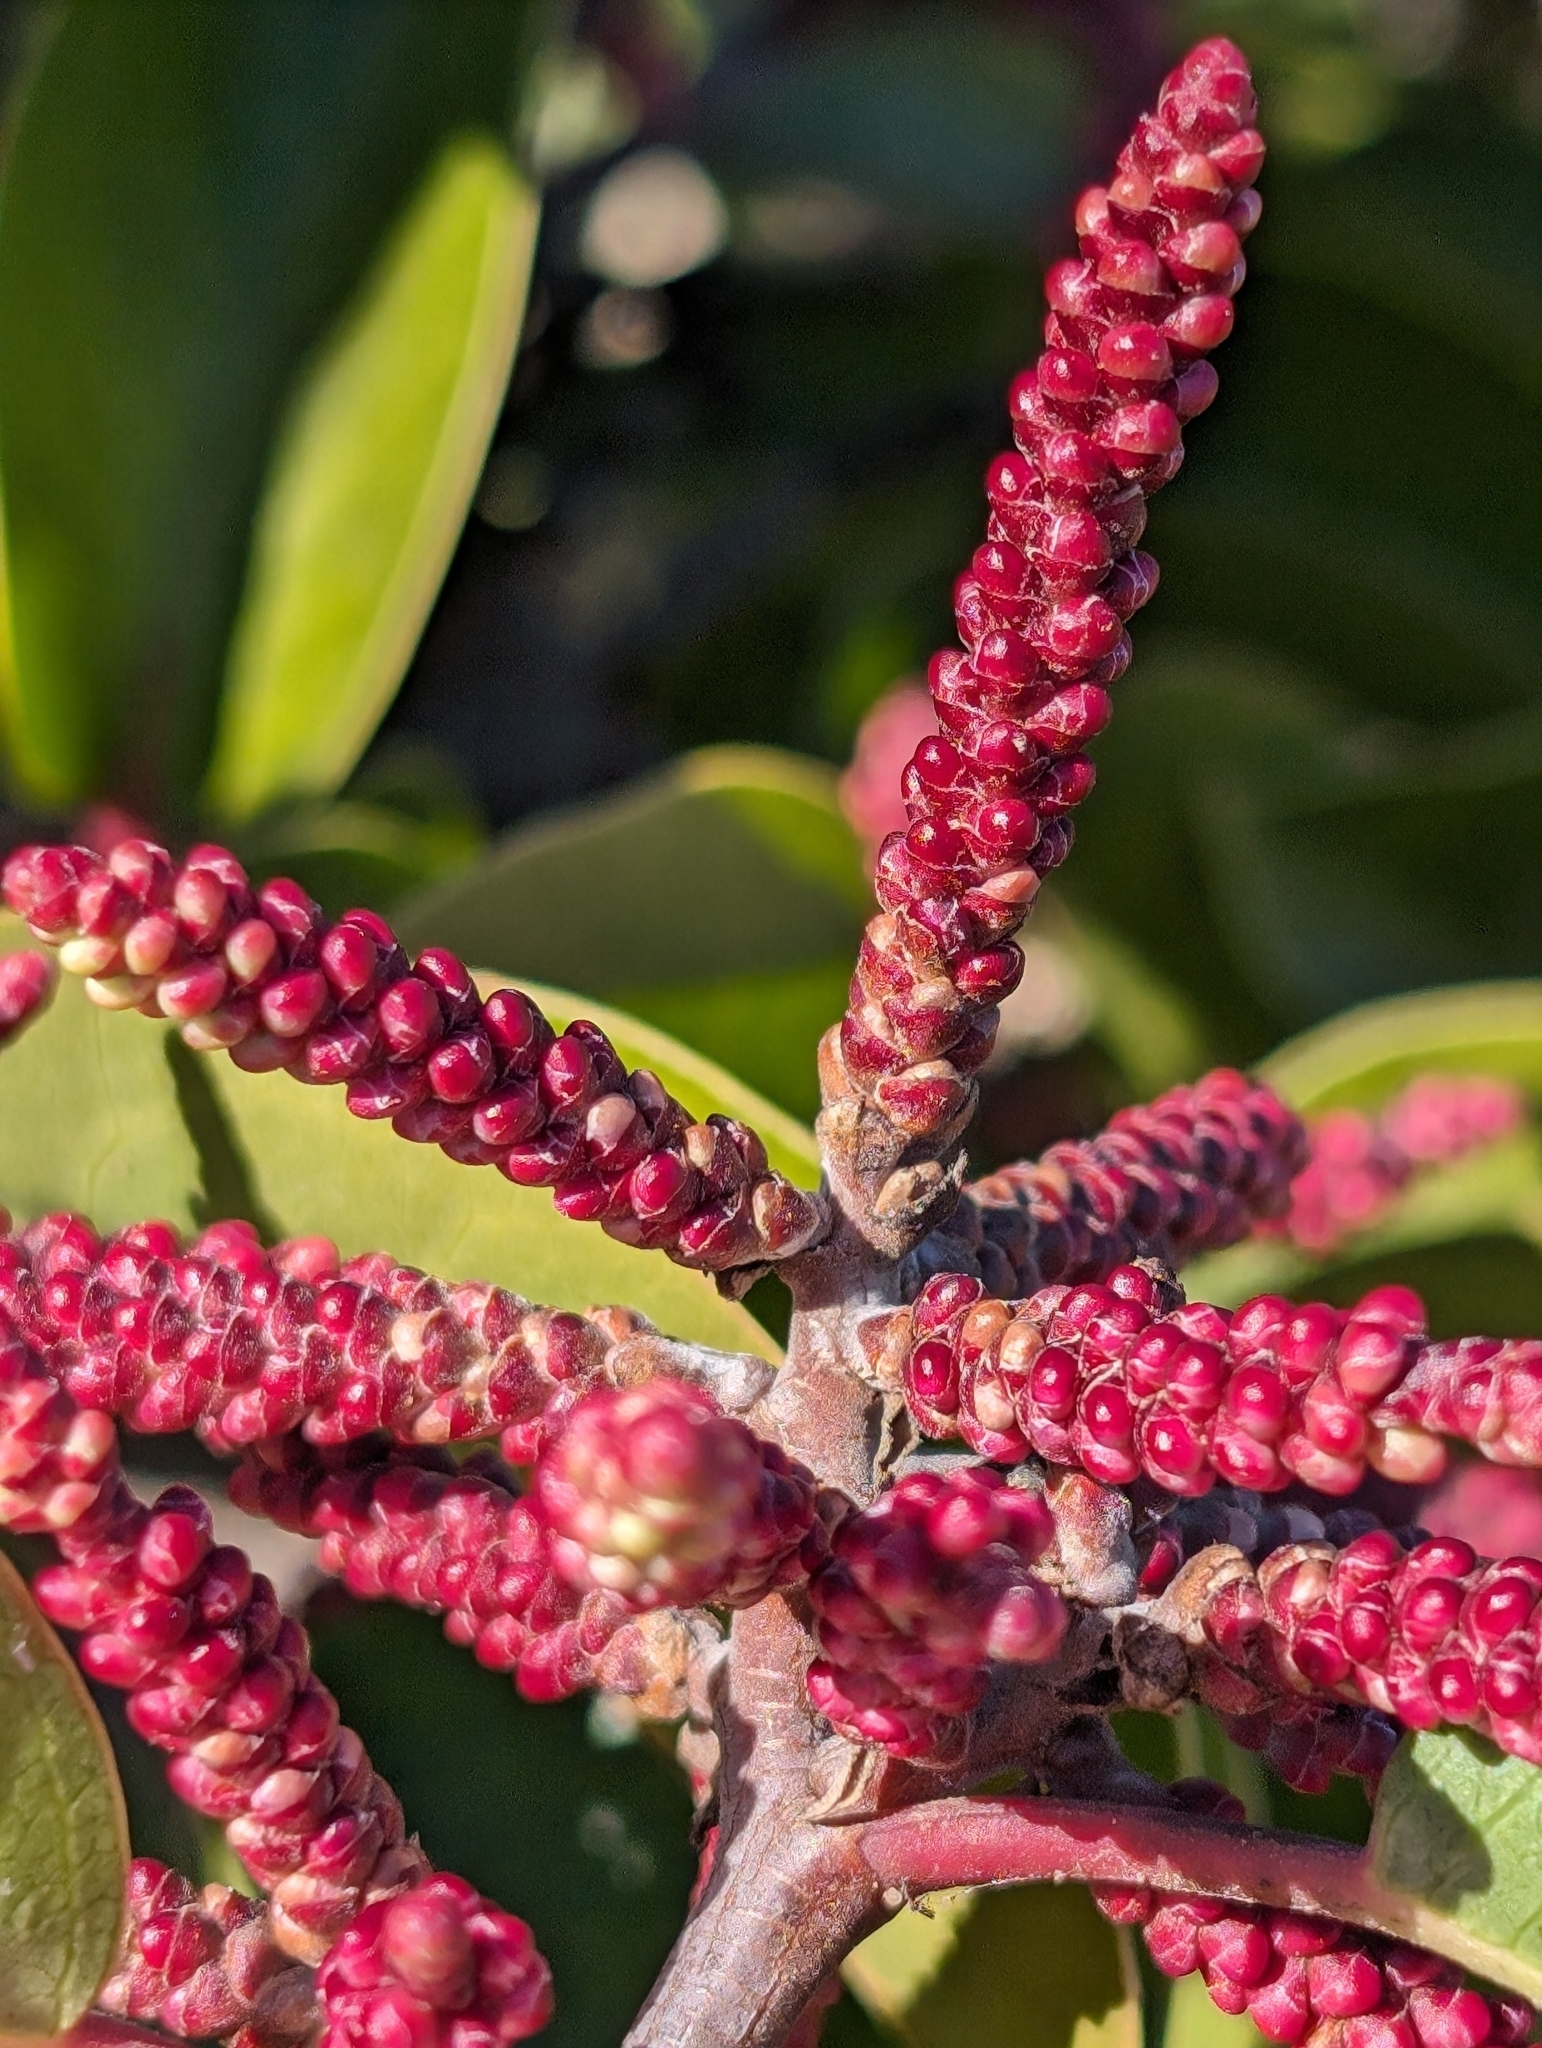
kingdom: Plantae
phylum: Tracheophyta
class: Magnoliopsida
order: Sapindales
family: Anacardiaceae
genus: Rhus
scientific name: Rhus ovata
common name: Sugar sumac
